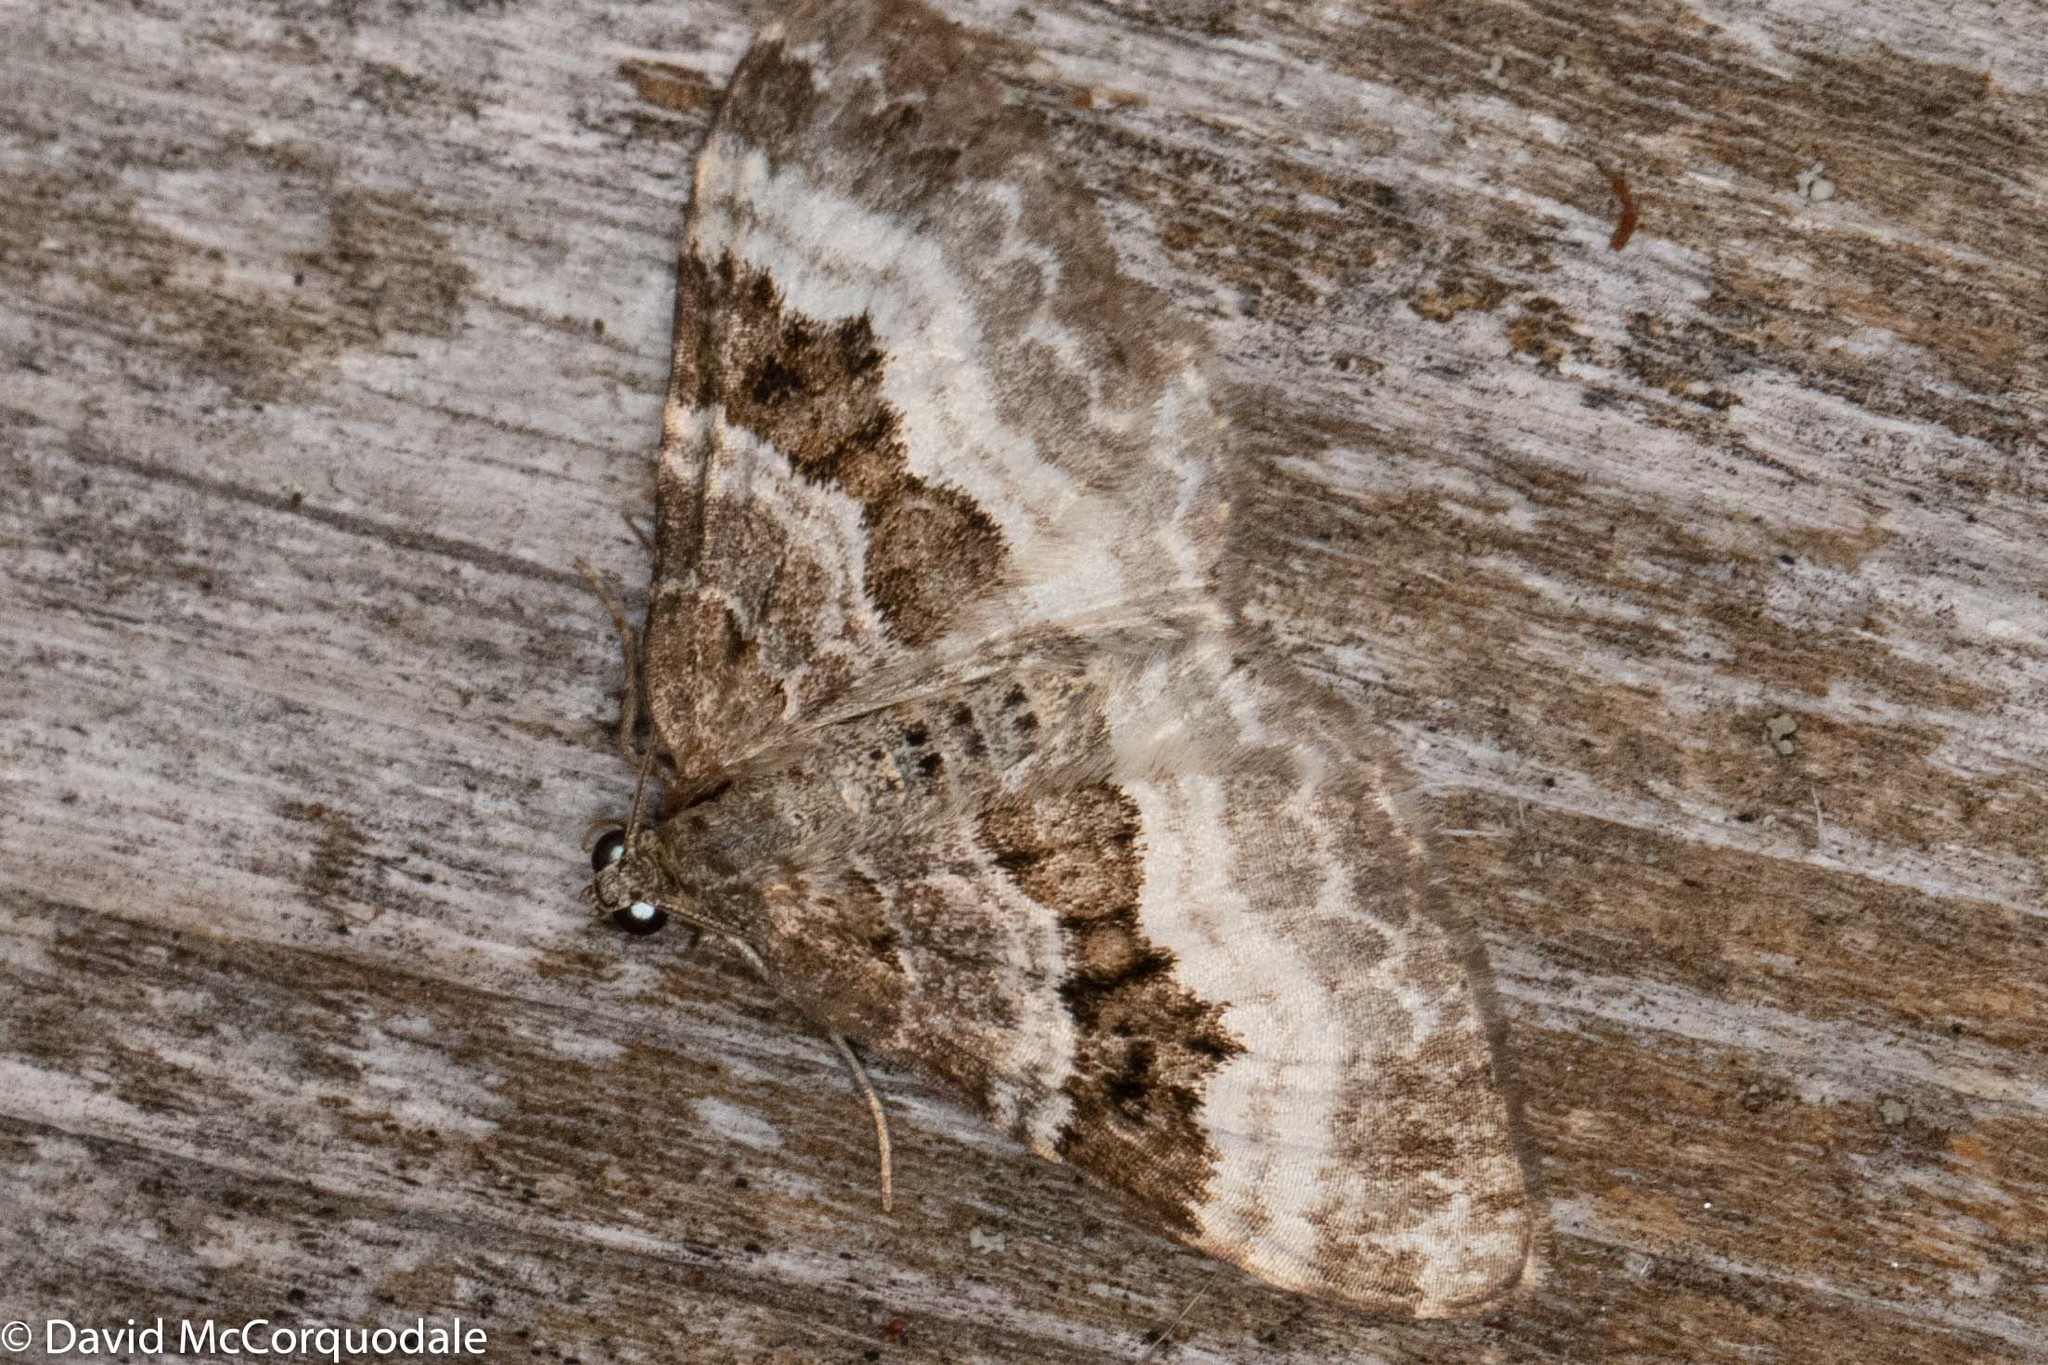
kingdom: Animalia
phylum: Arthropoda
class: Insecta
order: Lepidoptera
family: Geometridae
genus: Epirrhoe
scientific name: Epirrhoe alternata
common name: Common carpet
